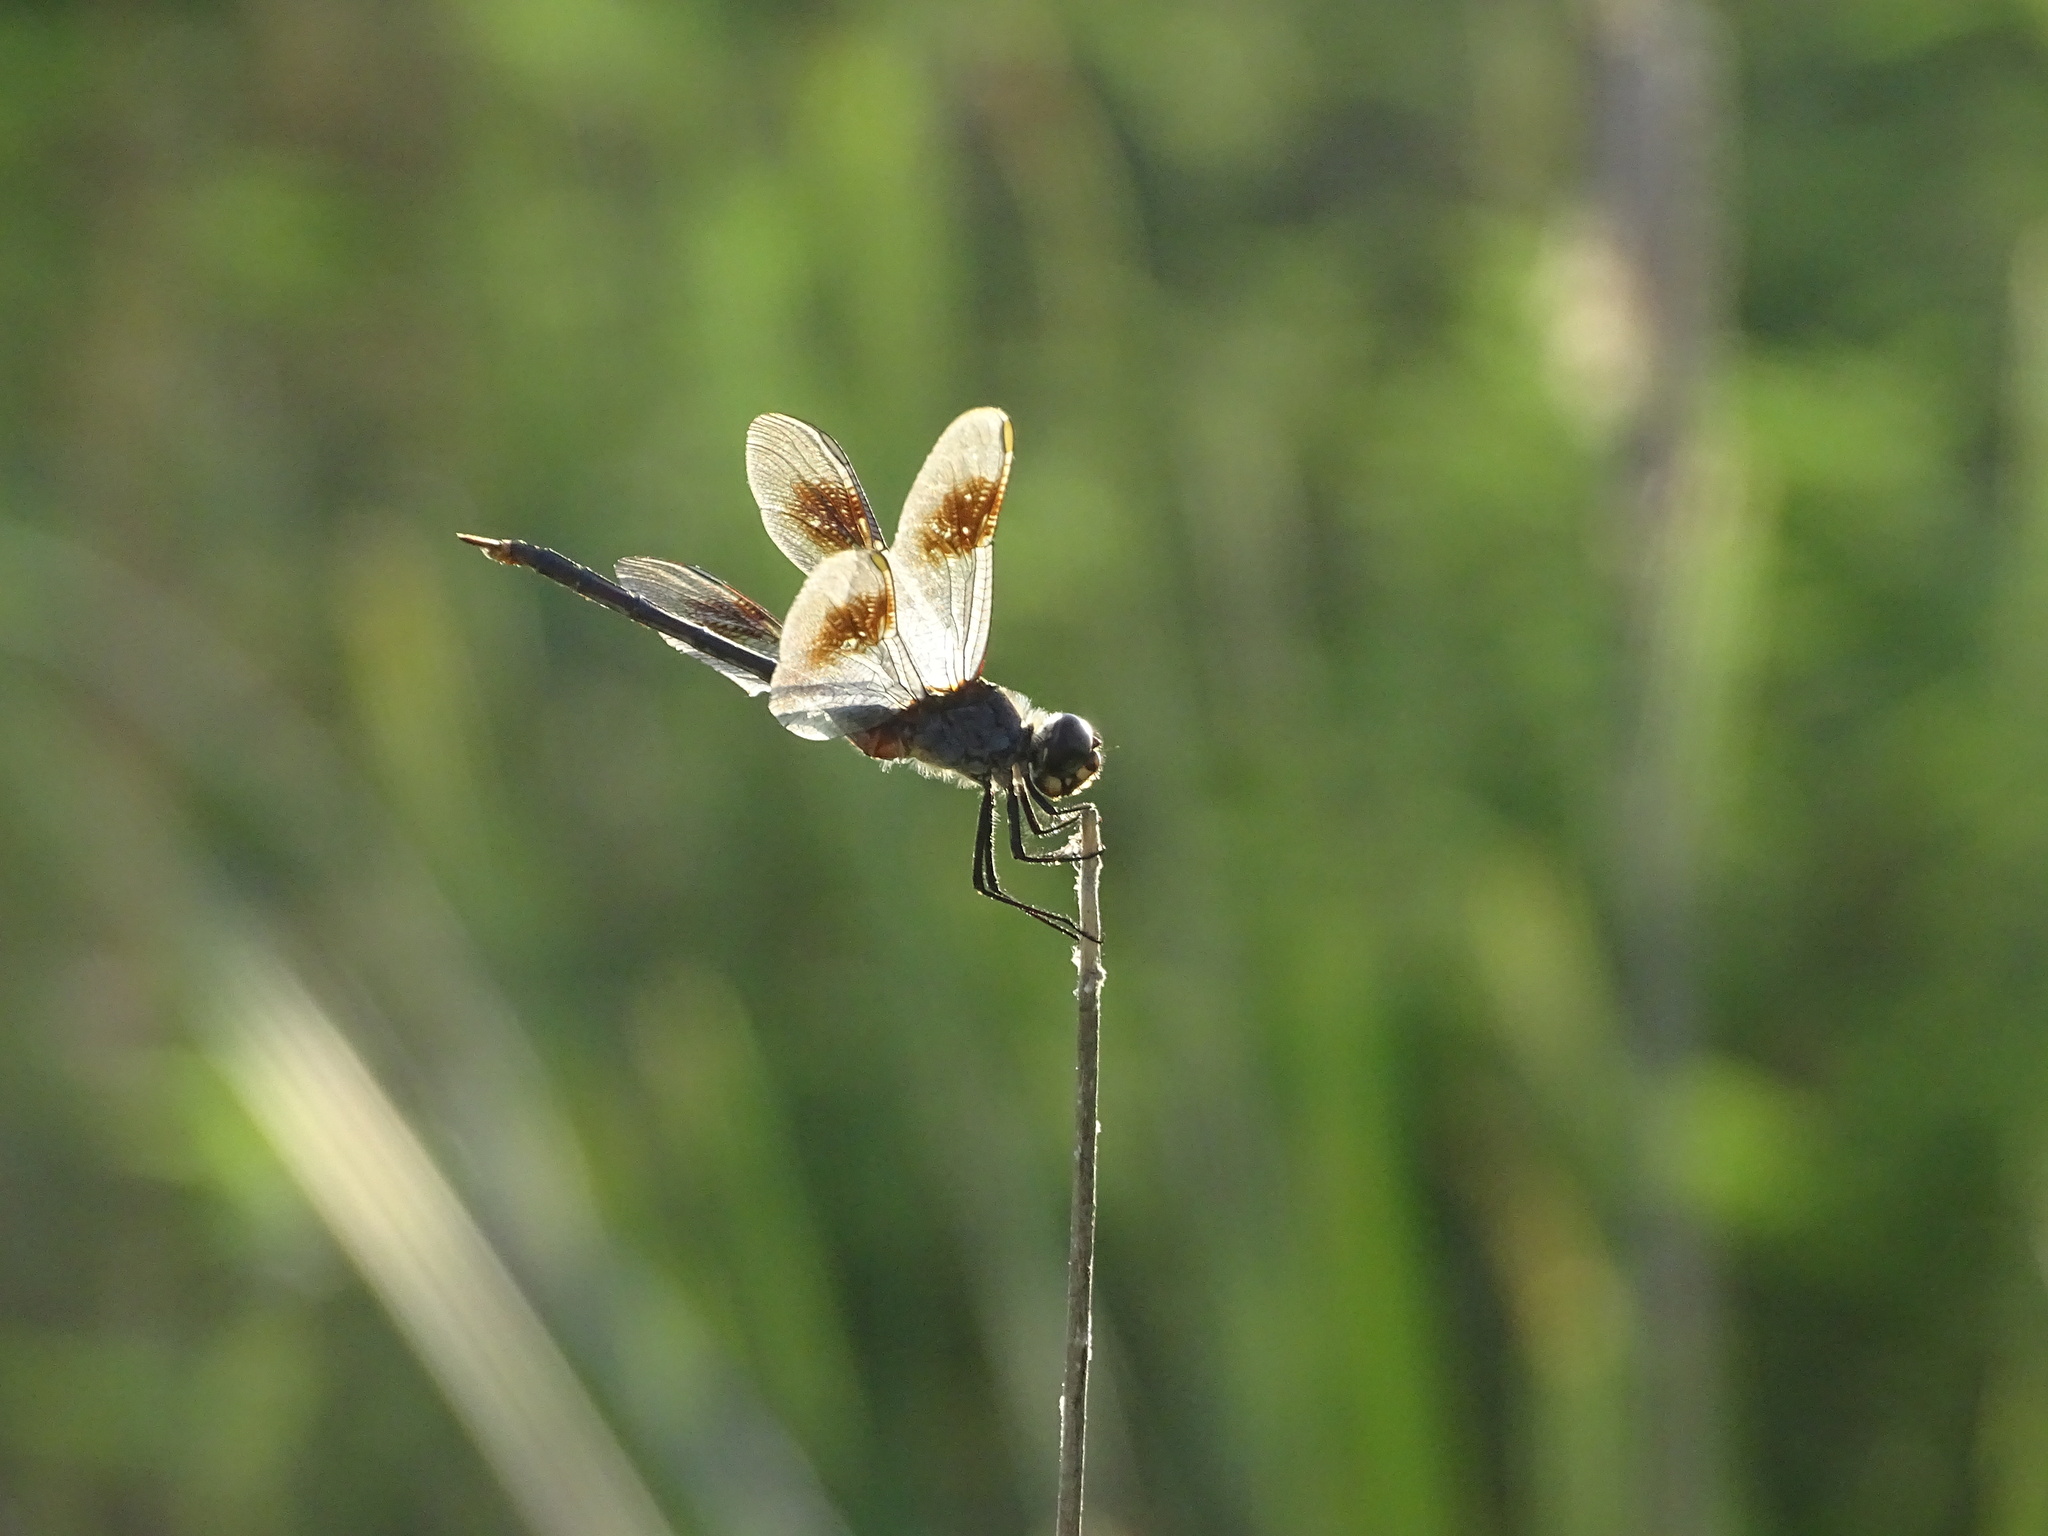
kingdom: Animalia
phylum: Arthropoda
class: Insecta
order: Odonata
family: Libellulidae
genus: Brachymesia
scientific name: Brachymesia gravida
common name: Four-spotted pennant
